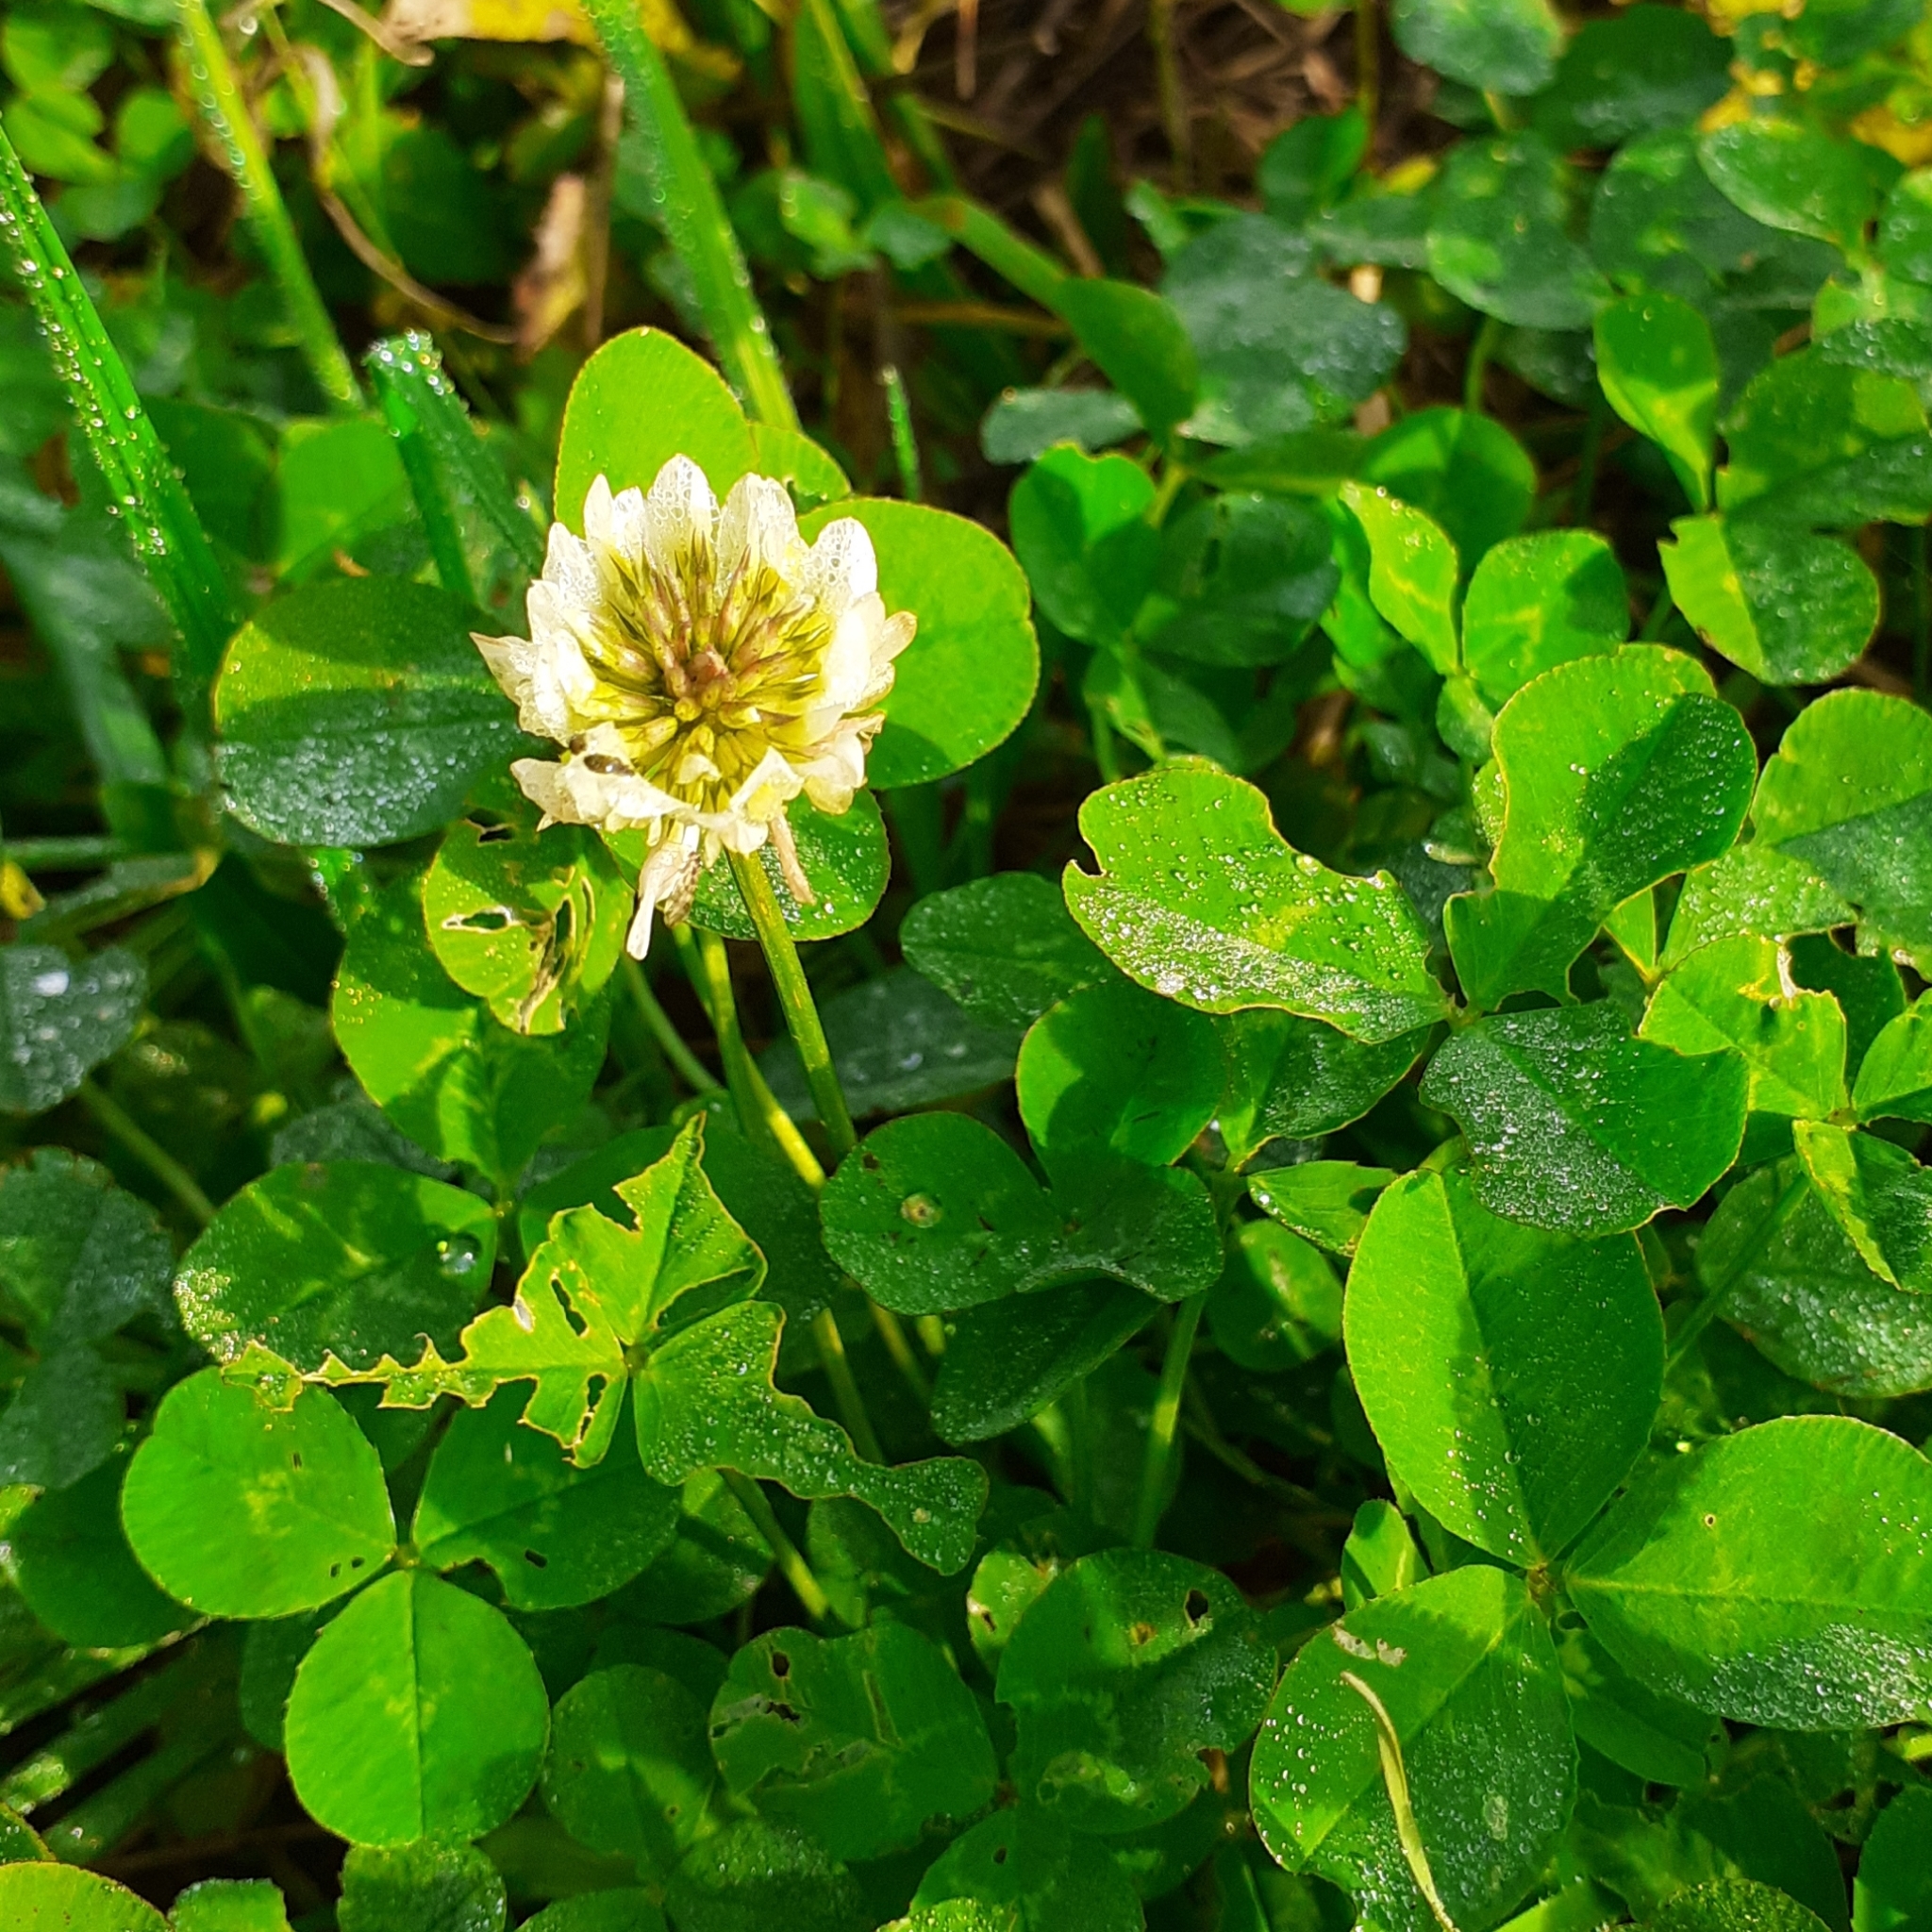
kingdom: Plantae
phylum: Tracheophyta
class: Magnoliopsida
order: Fabales
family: Fabaceae
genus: Trifolium
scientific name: Trifolium repens
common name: White clover
